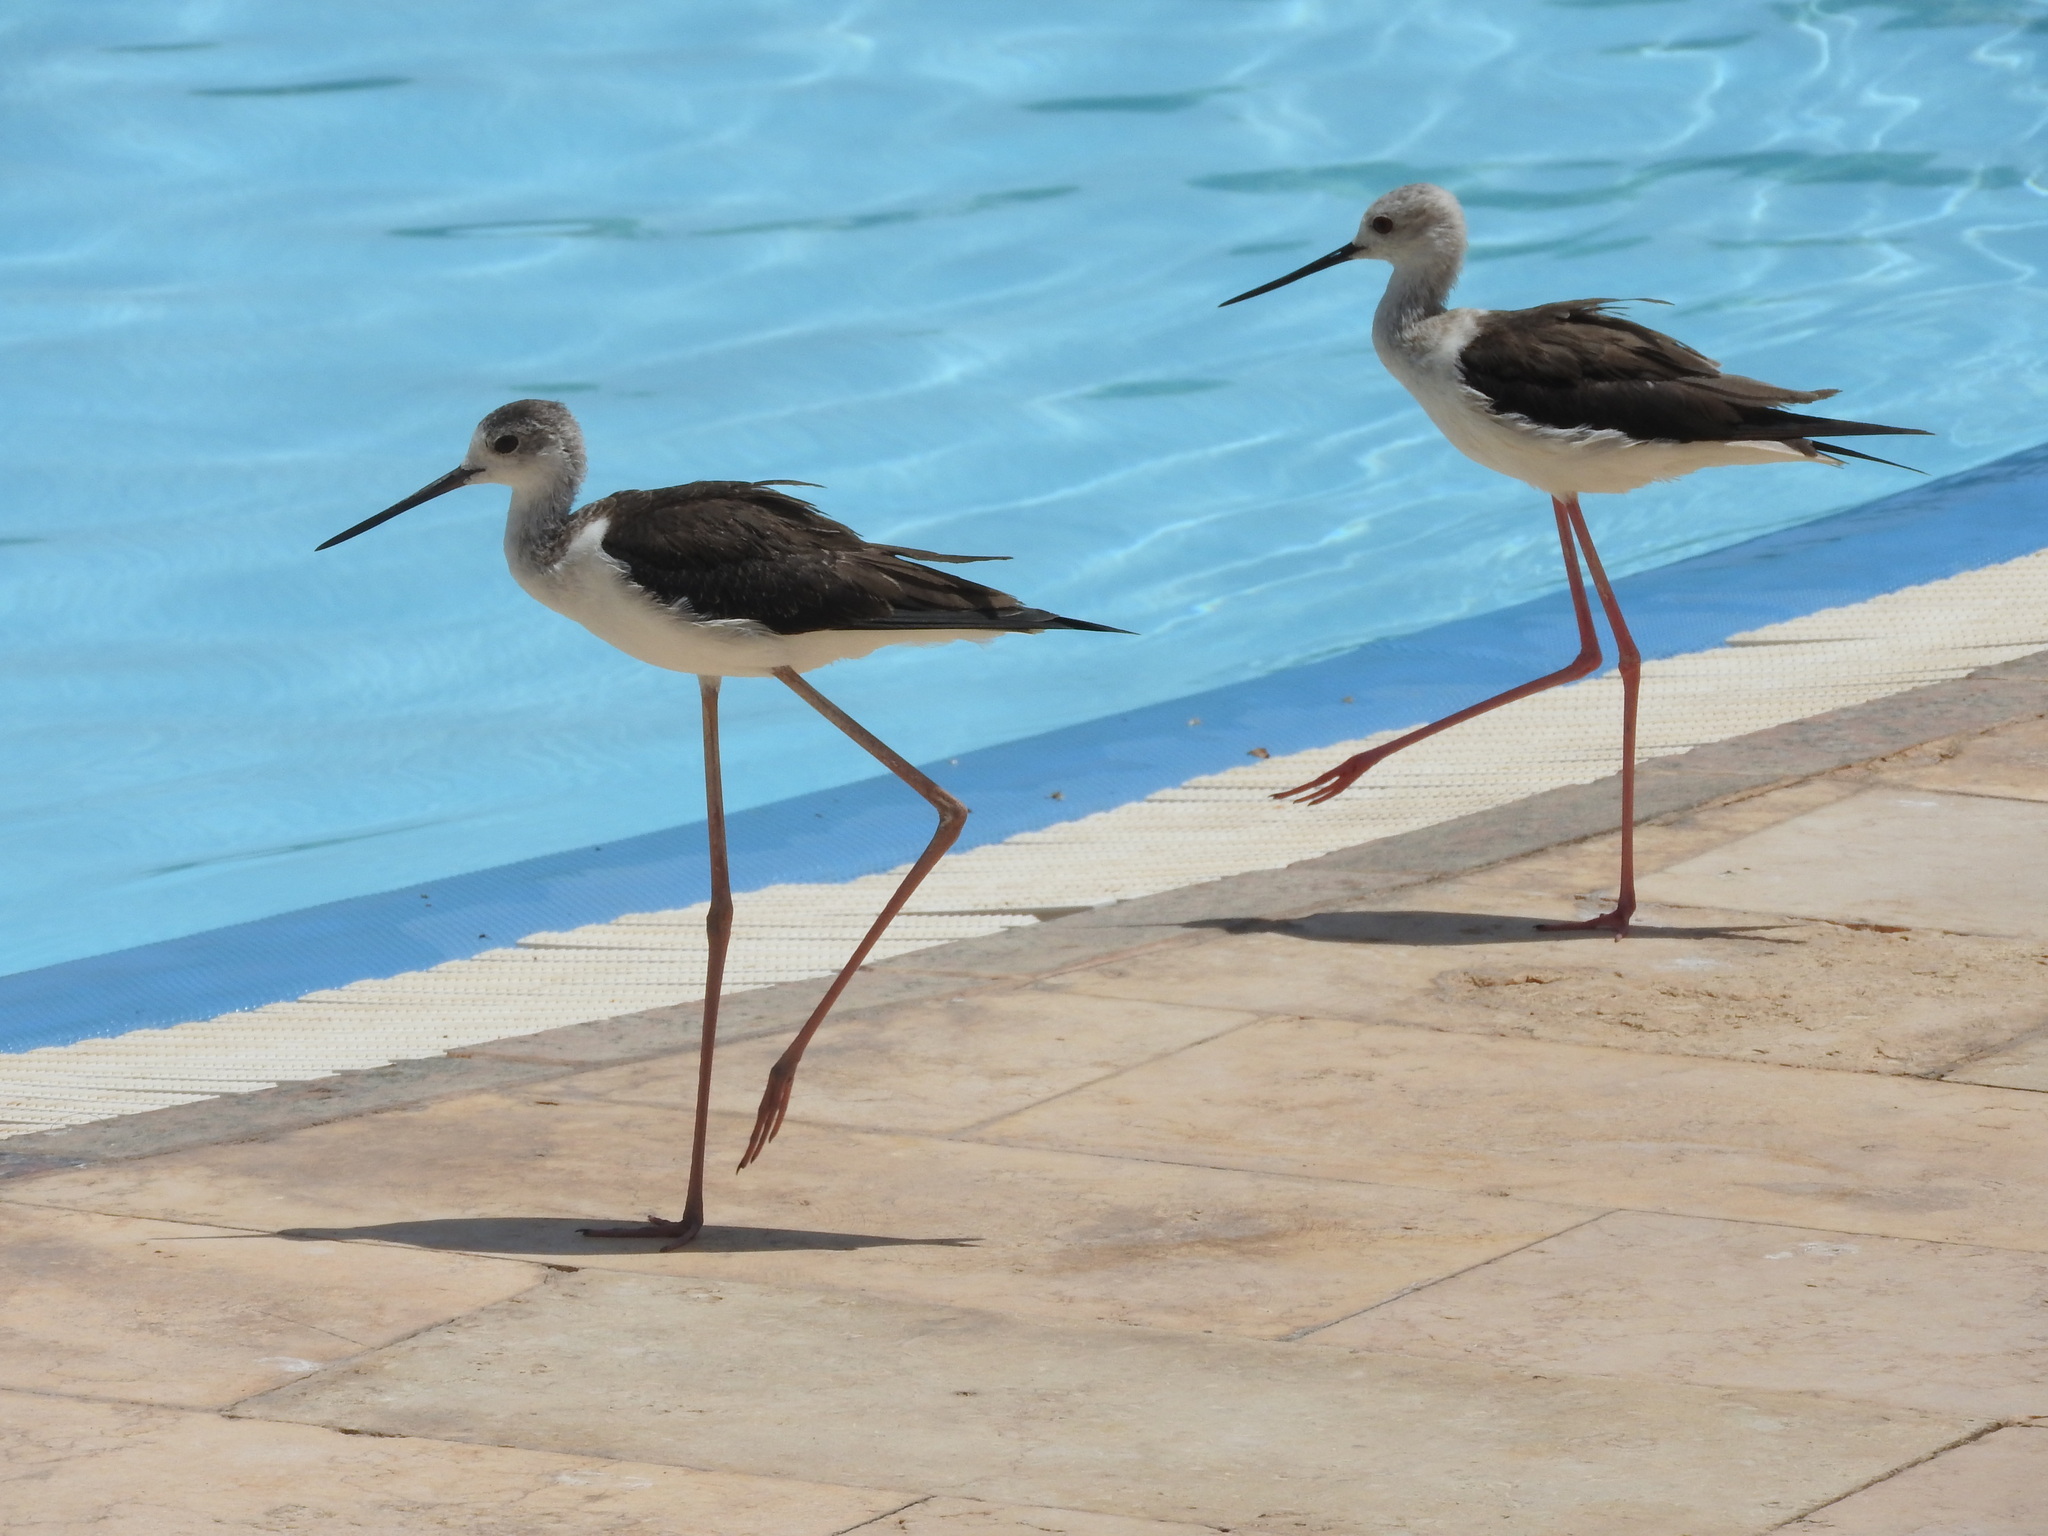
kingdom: Animalia
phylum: Chordata
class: Aves
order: Charadriiformes
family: Recurvirostridae
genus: Himantopus
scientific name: Himantopus himantopus
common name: Black-winged stilt
